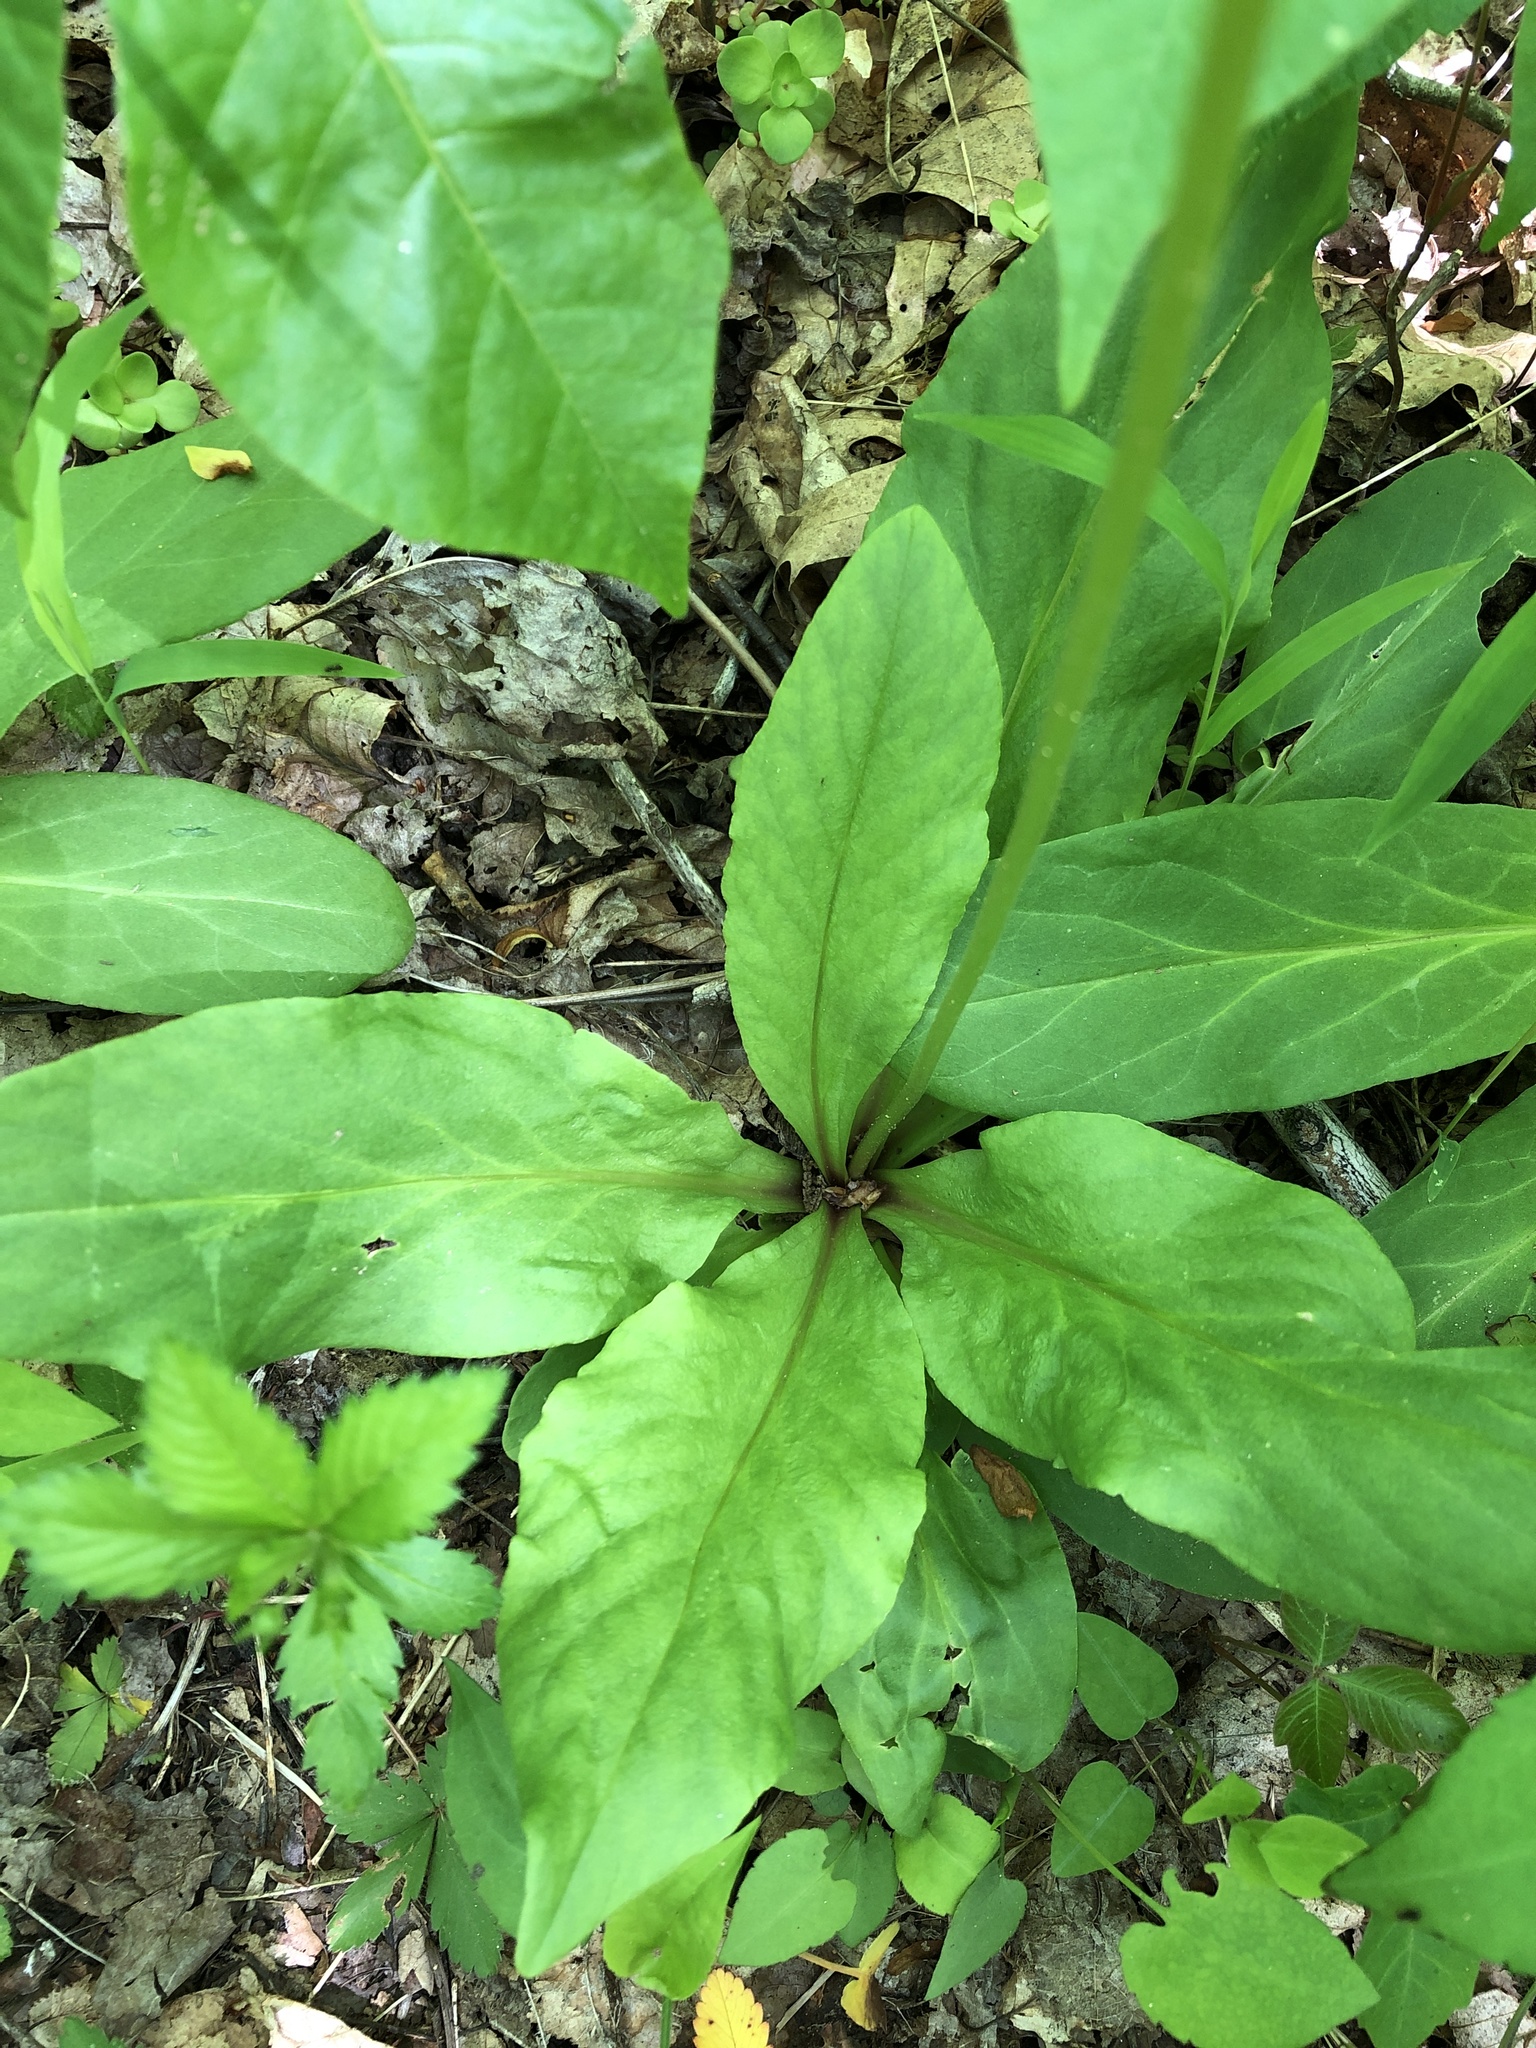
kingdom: Plantae
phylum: Tracheophyta
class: Magnoliopsida
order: Ericales
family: Primulaceae
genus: Dodecatheon
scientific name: Dodecatheon meadia
